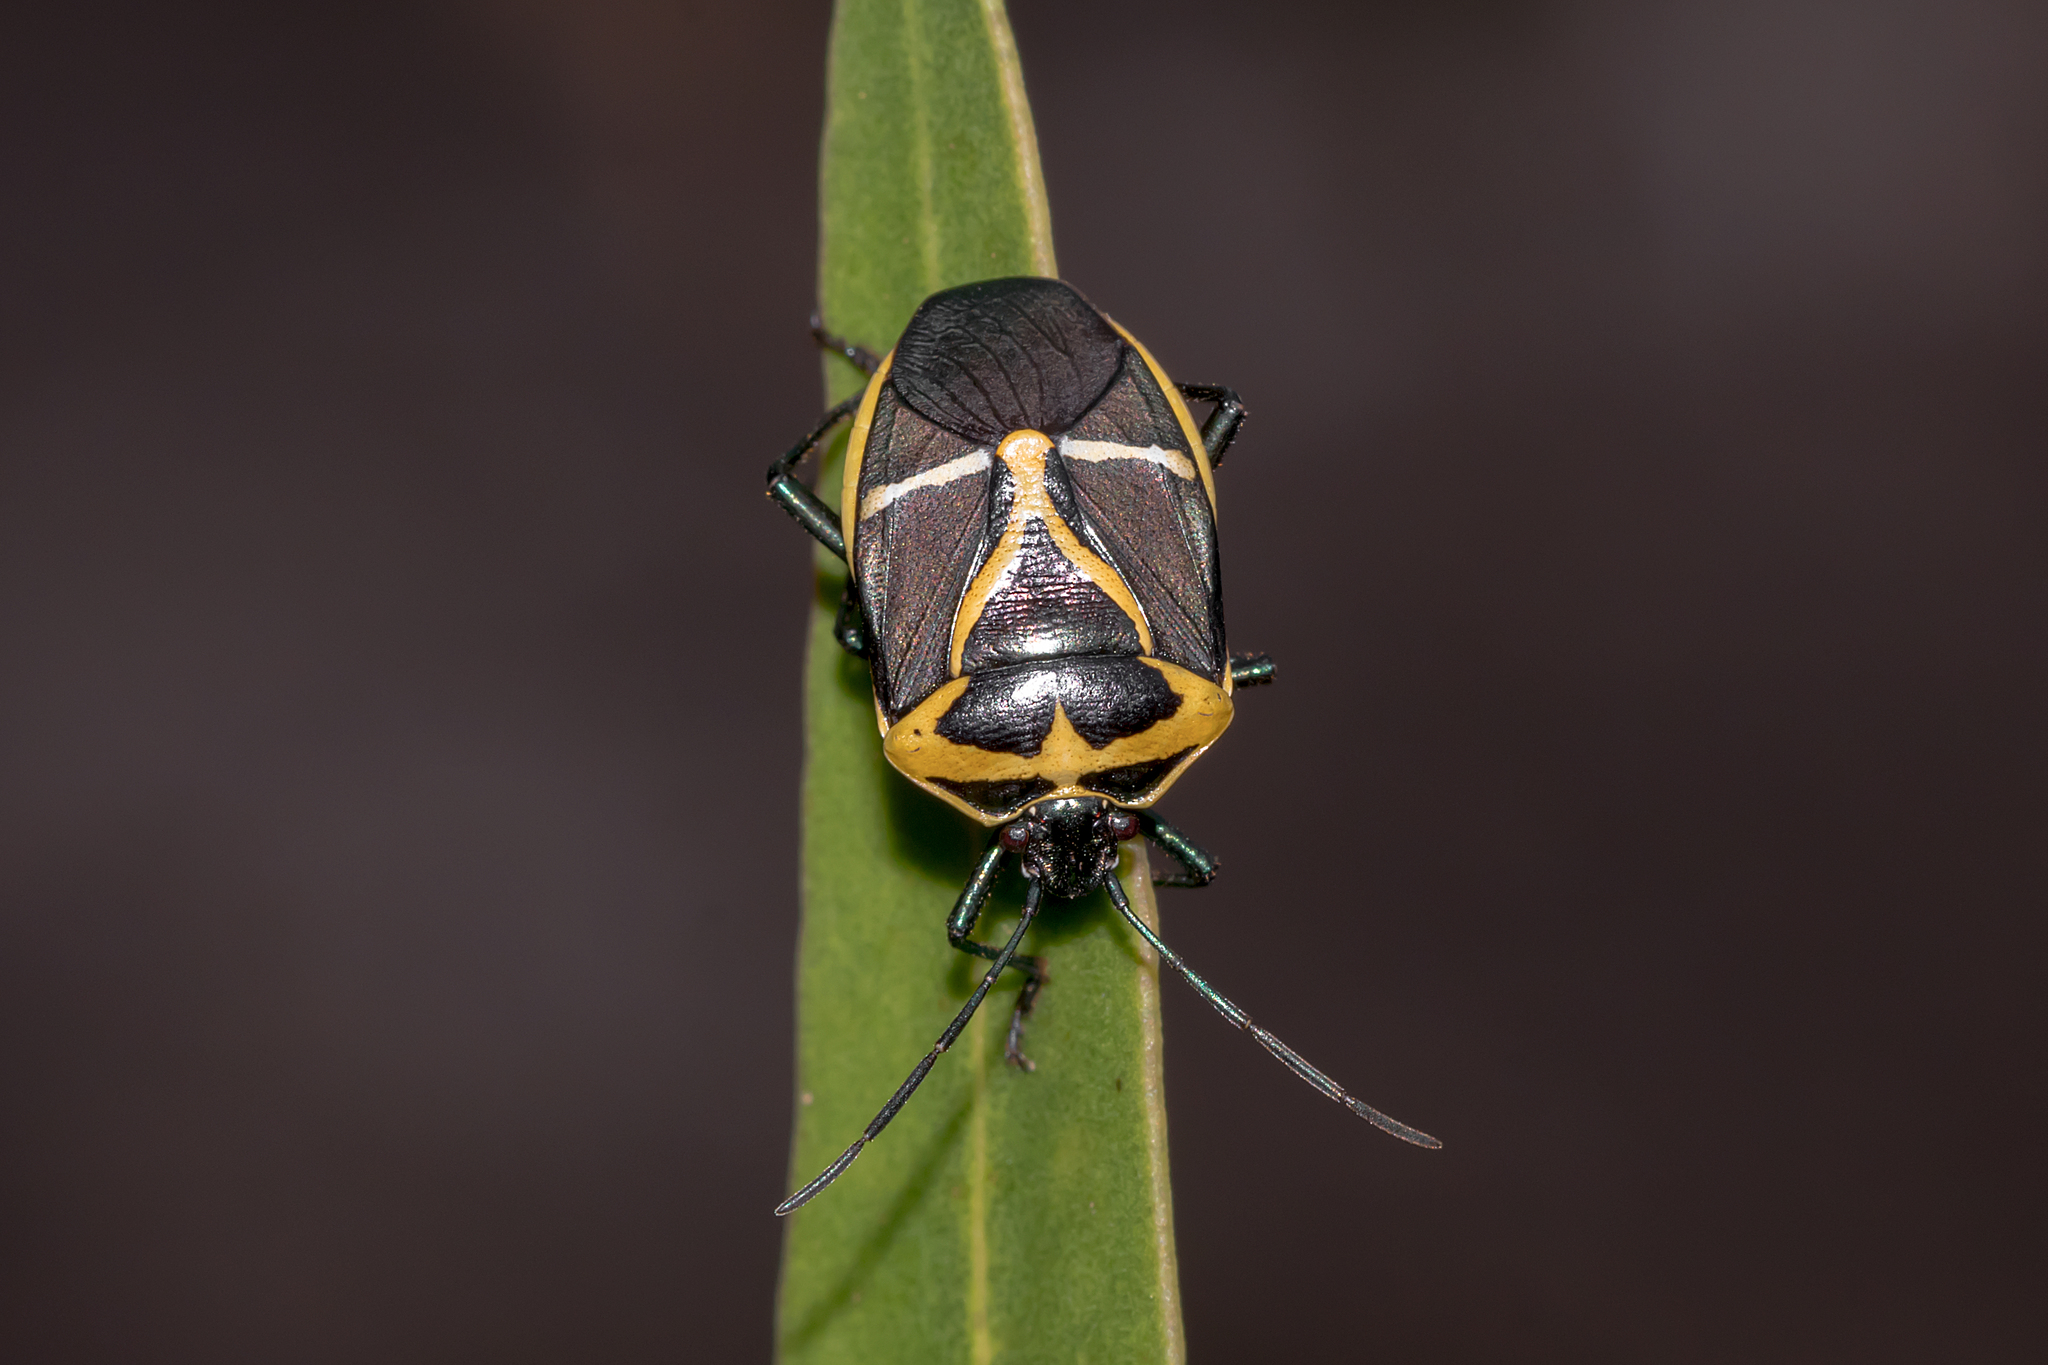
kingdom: Animalia
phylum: Arthropoda
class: Insecta
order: Hemiptera
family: Pentatomidae
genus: Commius
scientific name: Commius
